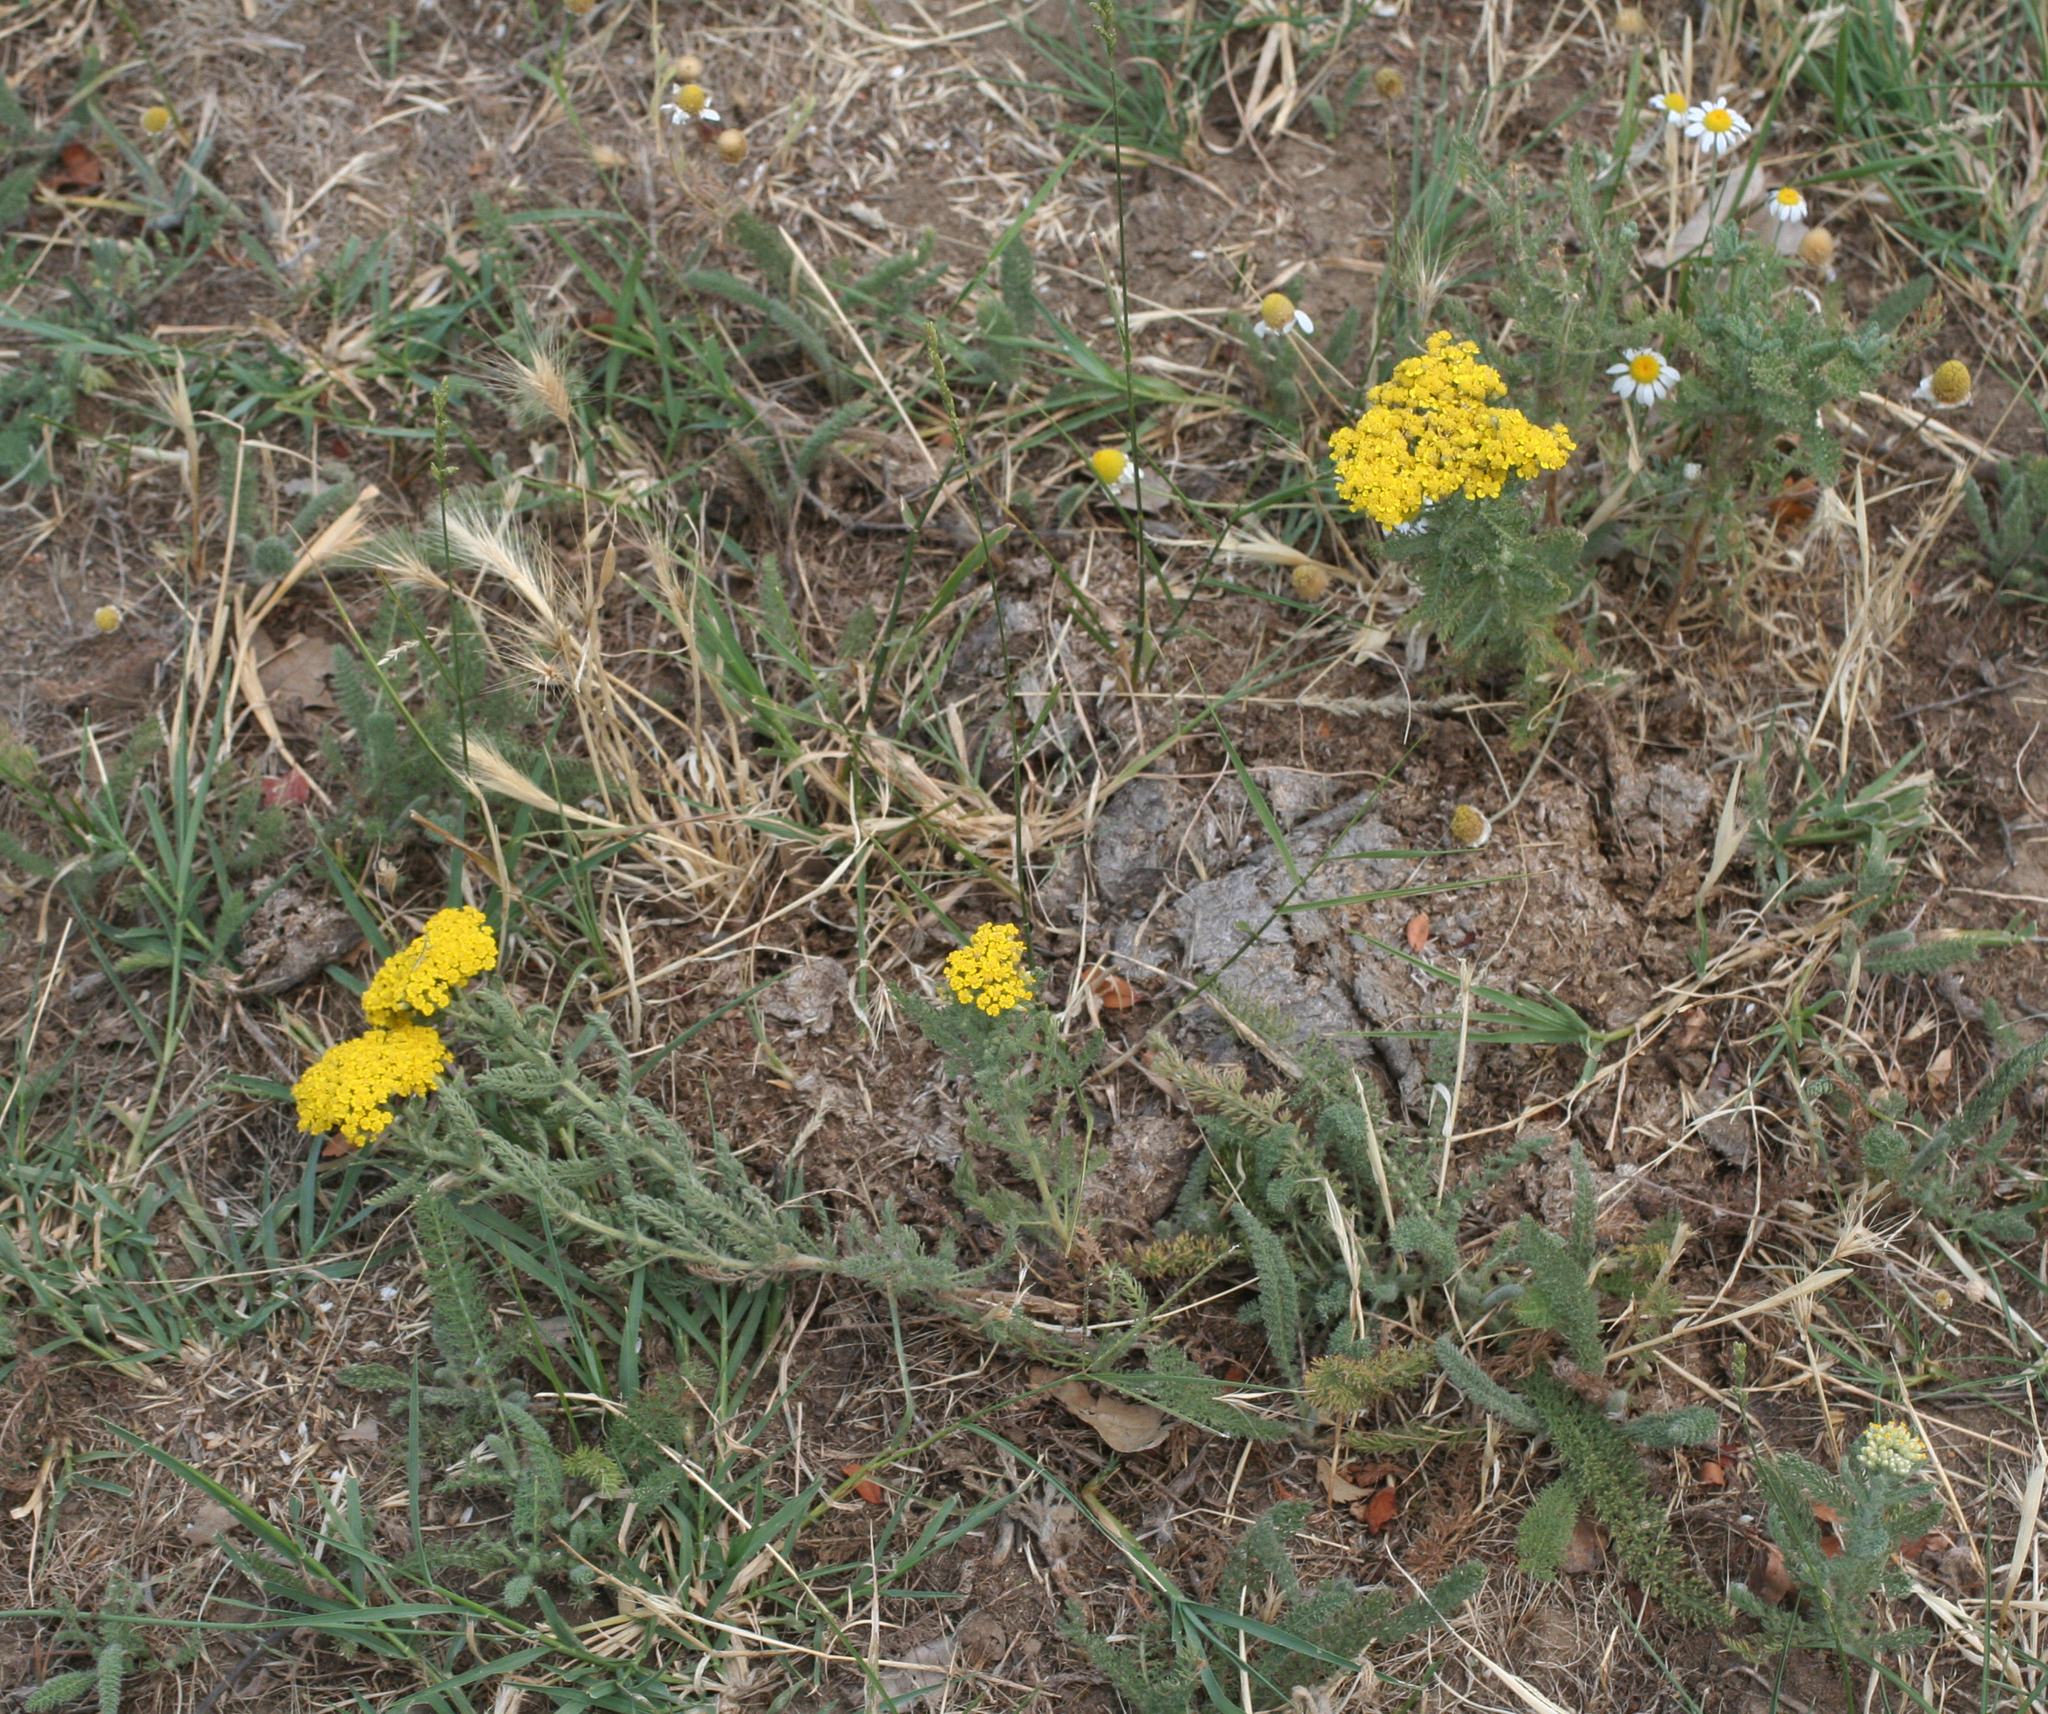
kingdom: Plantae
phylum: Tracheophyta
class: Magnoliopsida
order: Asterales
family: Asteraceae
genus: Achillea
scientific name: Achillea arabica
